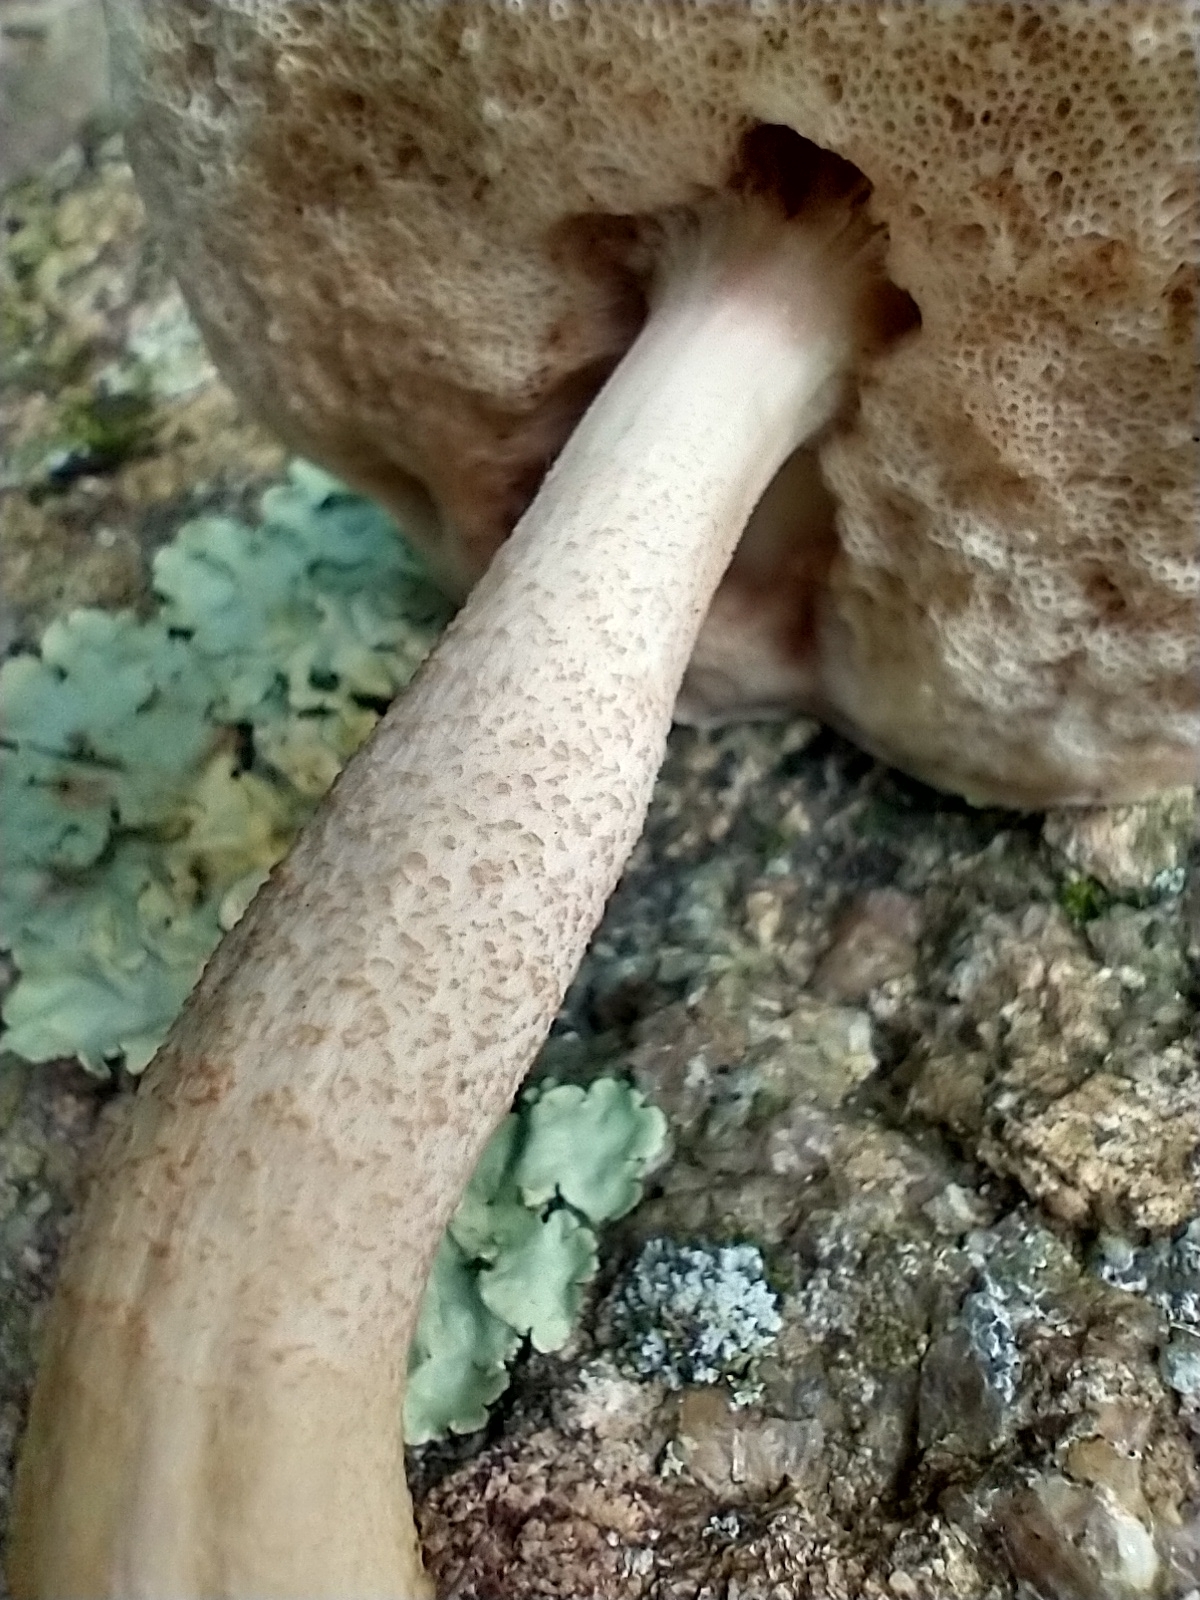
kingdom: Fungi
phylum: Basidiomycota
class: Agaricomycetes
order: Boletales
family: Boletaceae
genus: Harrya
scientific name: Harrya chromipes
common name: Chrome-footed bolete
